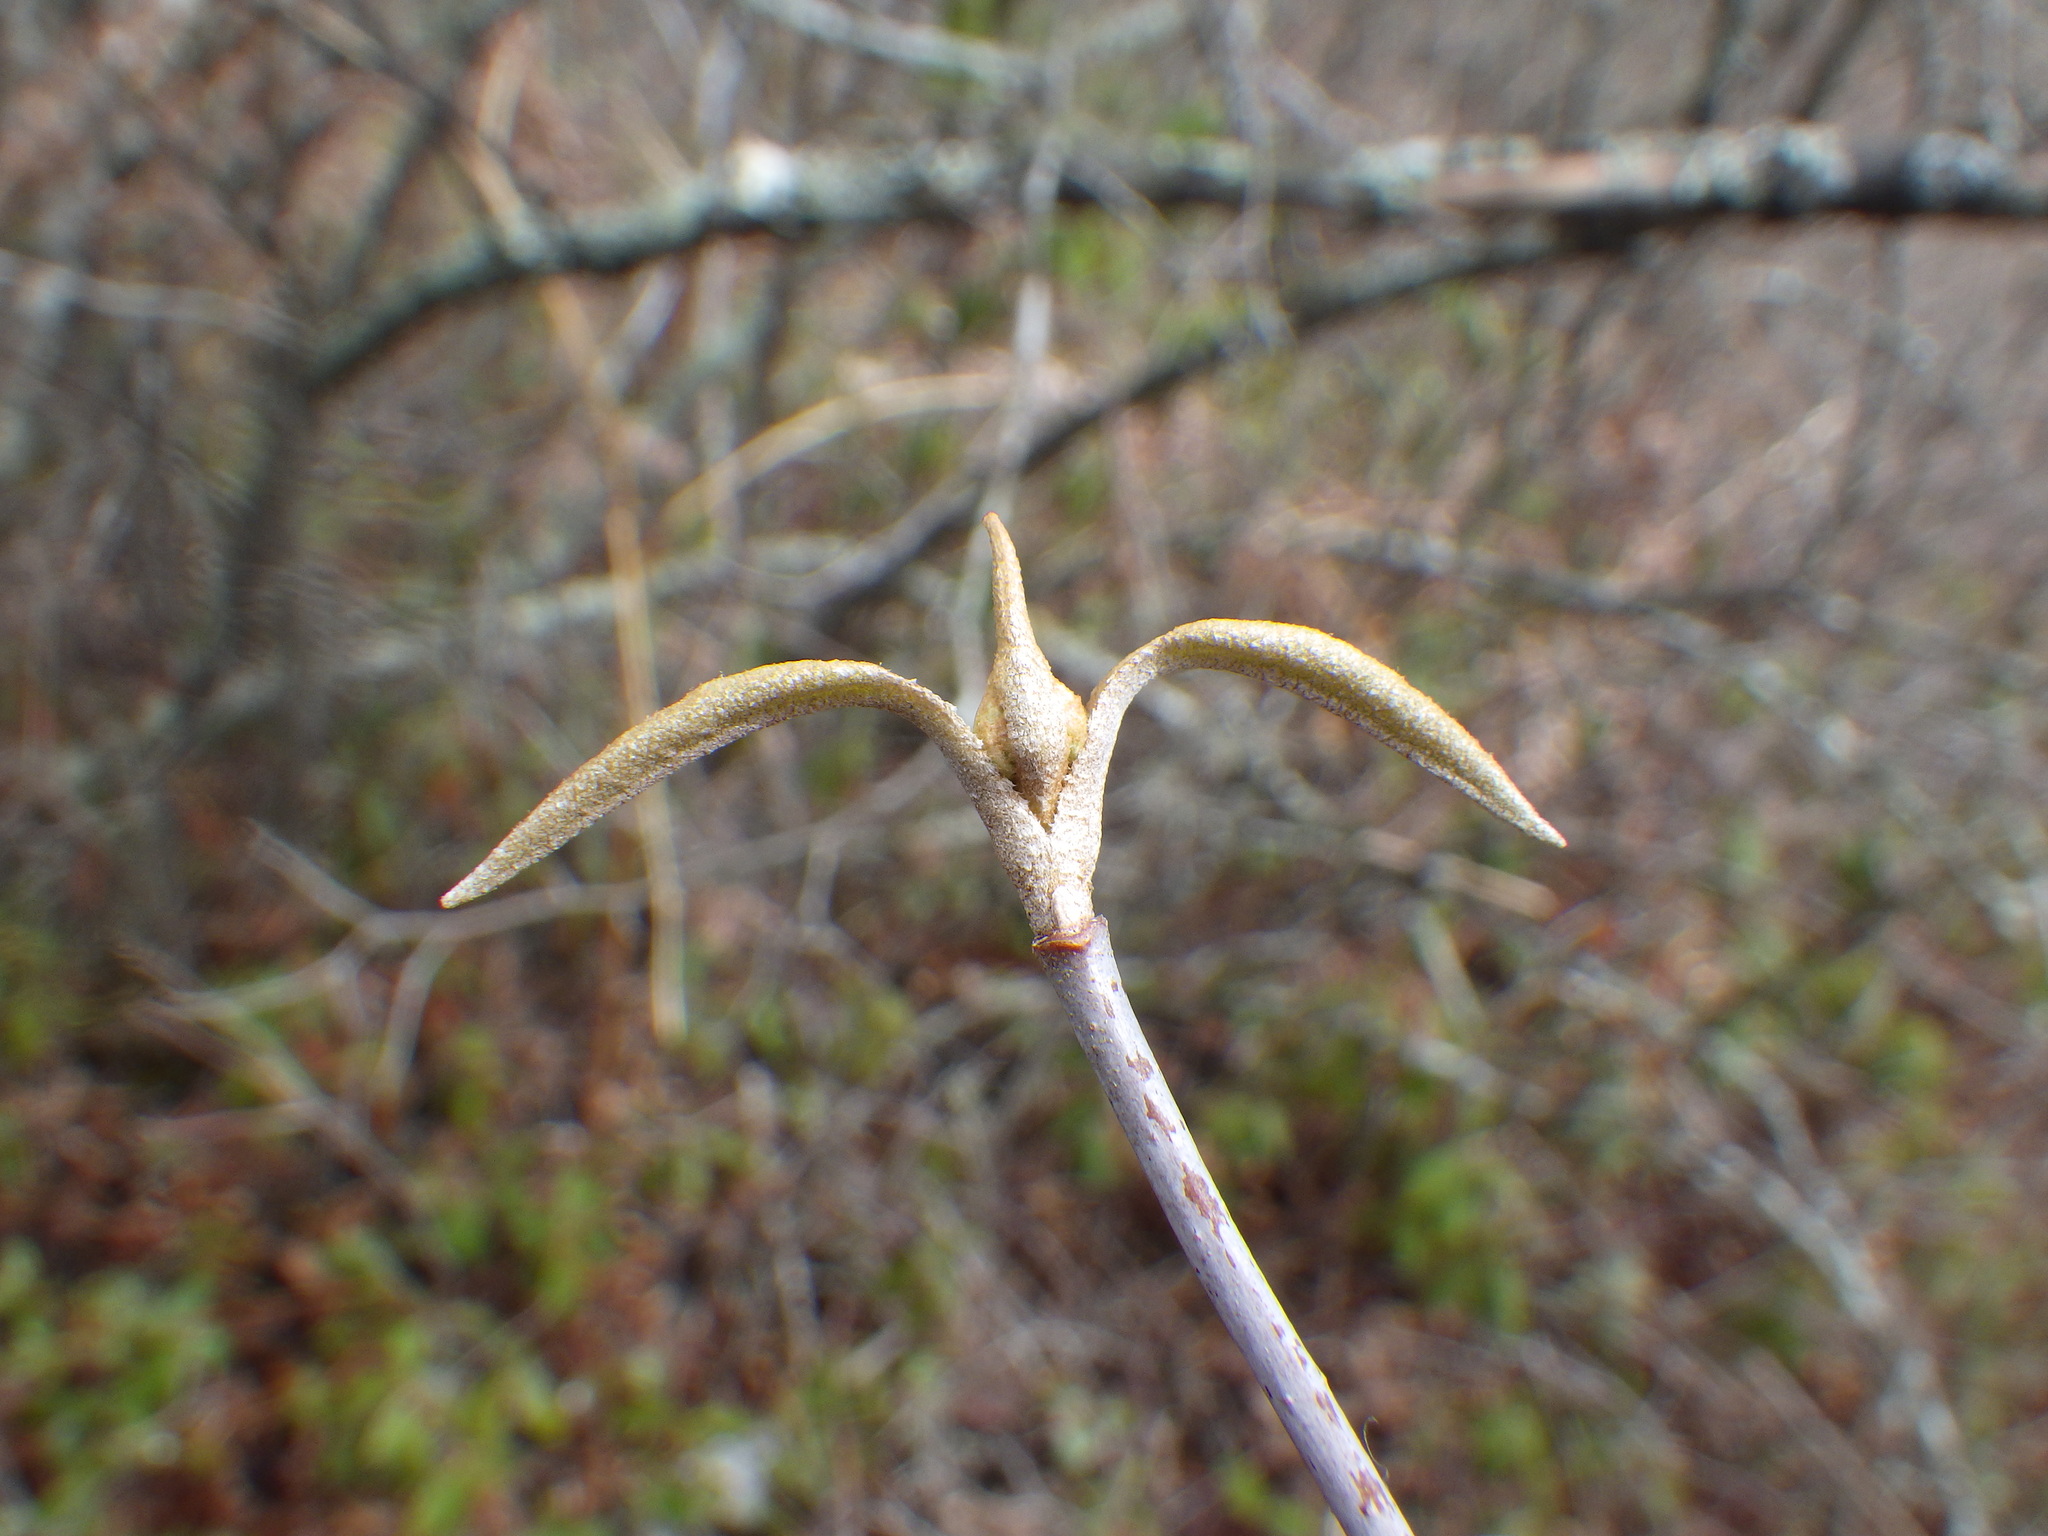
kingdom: Plantae
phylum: Tracheophyta
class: Magnoliopsida
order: Dipsacales
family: Viburnaceae
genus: Viburnum
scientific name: Viburnum cassinoides
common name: Swamp haw
